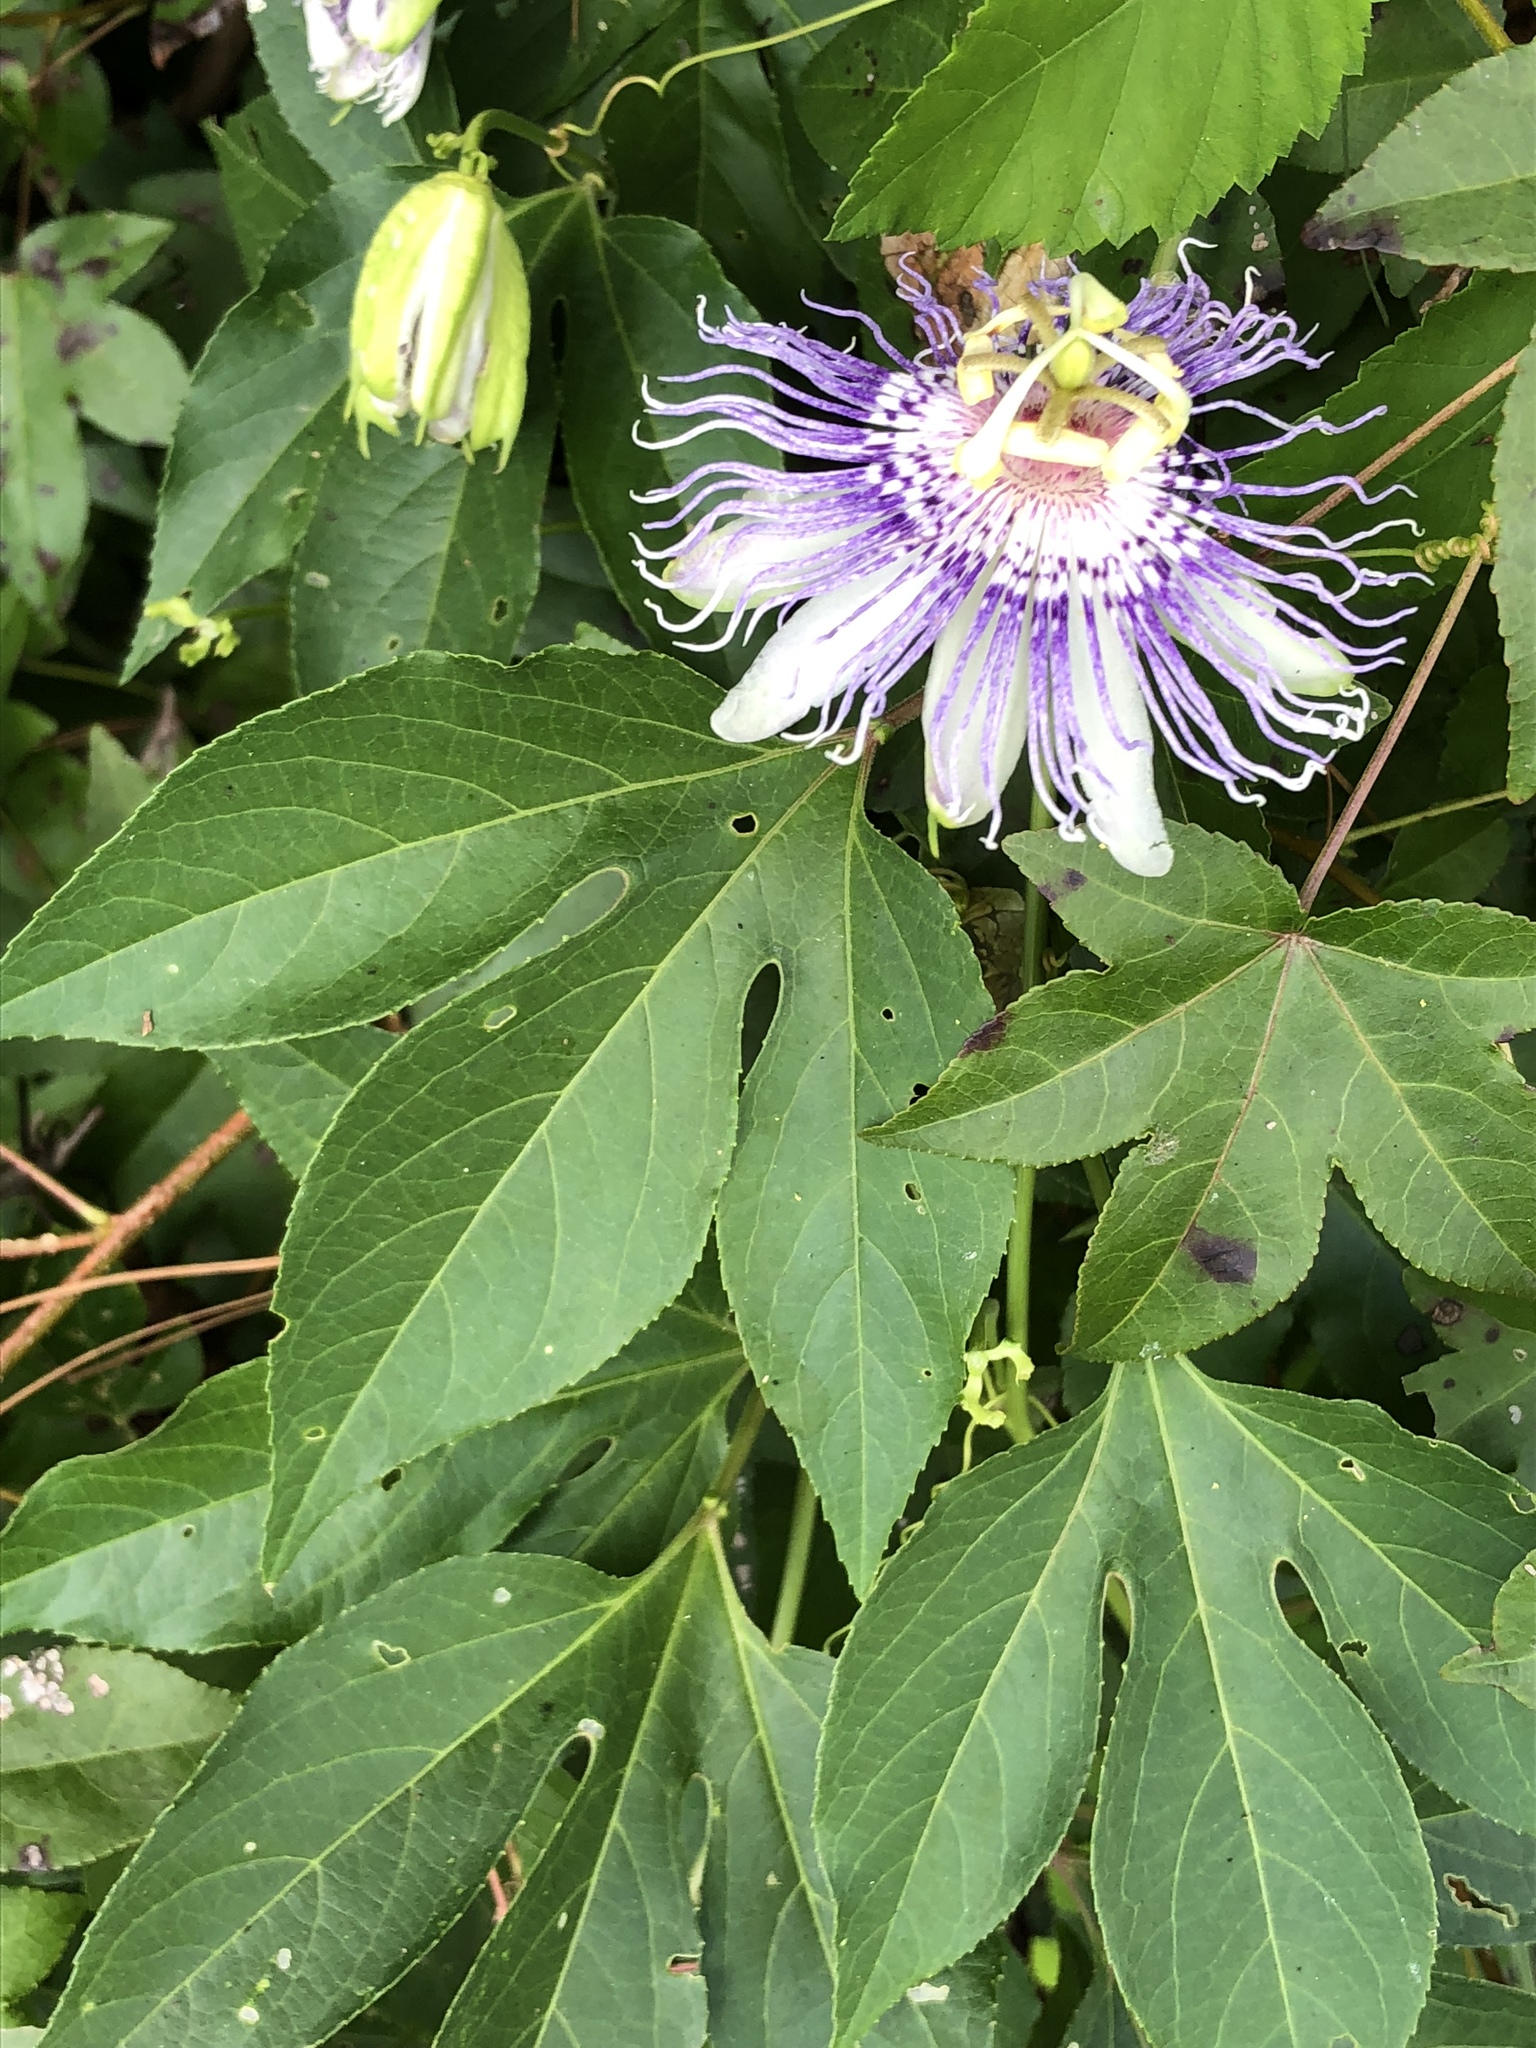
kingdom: Plantae
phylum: Tracheophyta
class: Magnoliopsida
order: Malpighiales
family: Passifloraceae
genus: Passiflora
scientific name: Passiflora incarnata
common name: Apricot-vine
